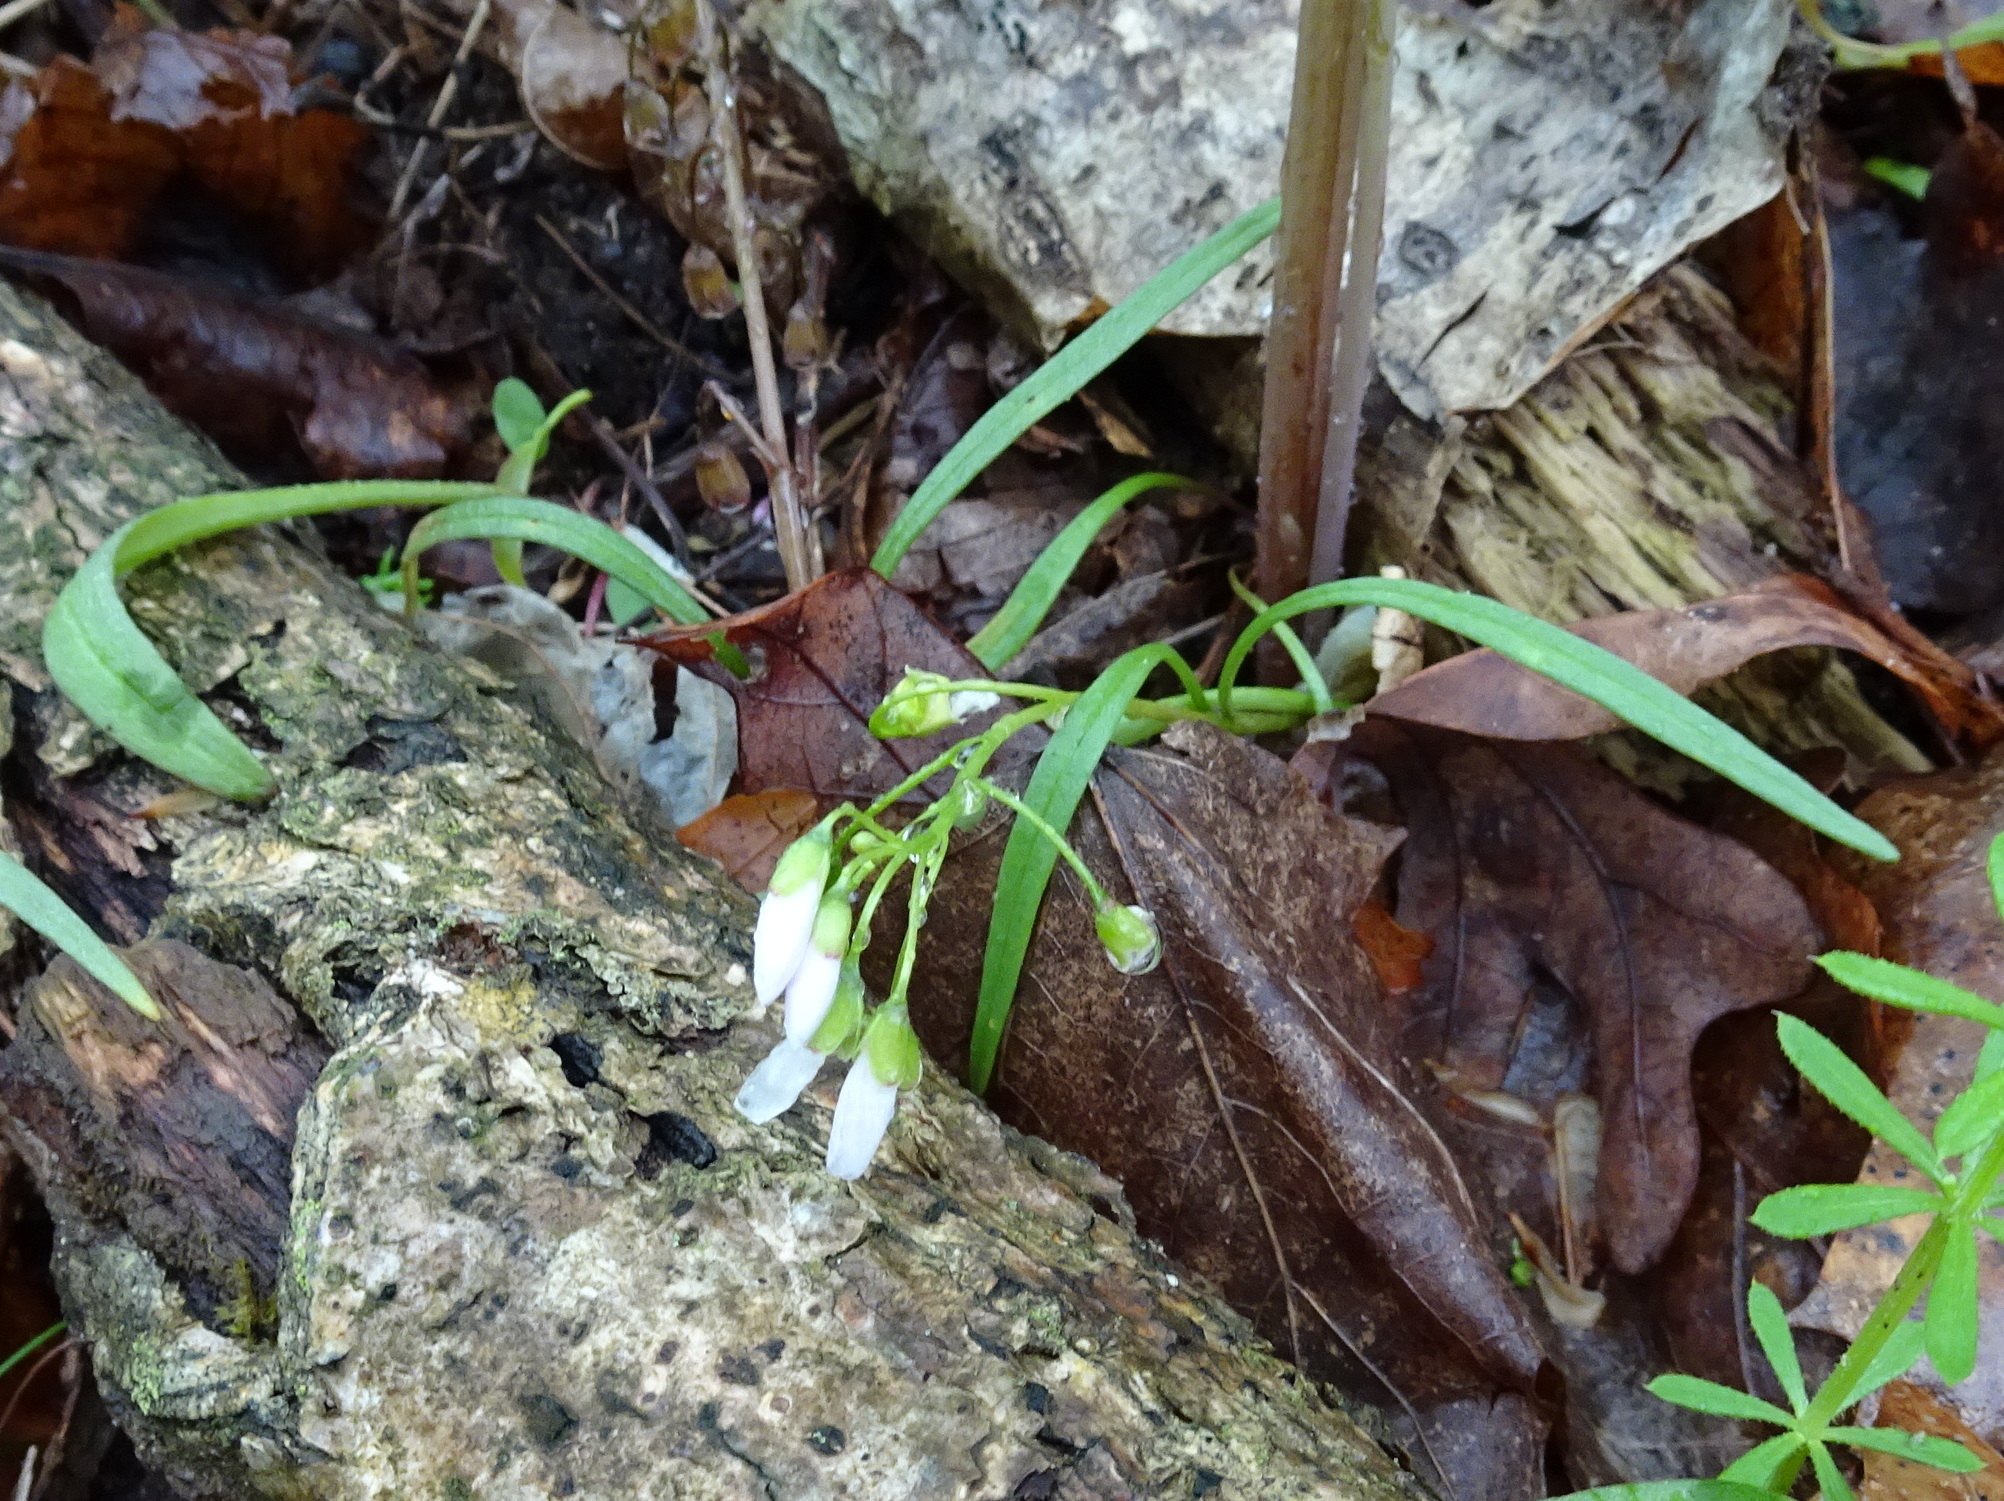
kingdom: Plantae
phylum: Tracheophyta
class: Magnoliopsida
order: Caryophyllales
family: Montiaceae
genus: Claytonia
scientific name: Claytonia virginica
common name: Virginia springbeauty
